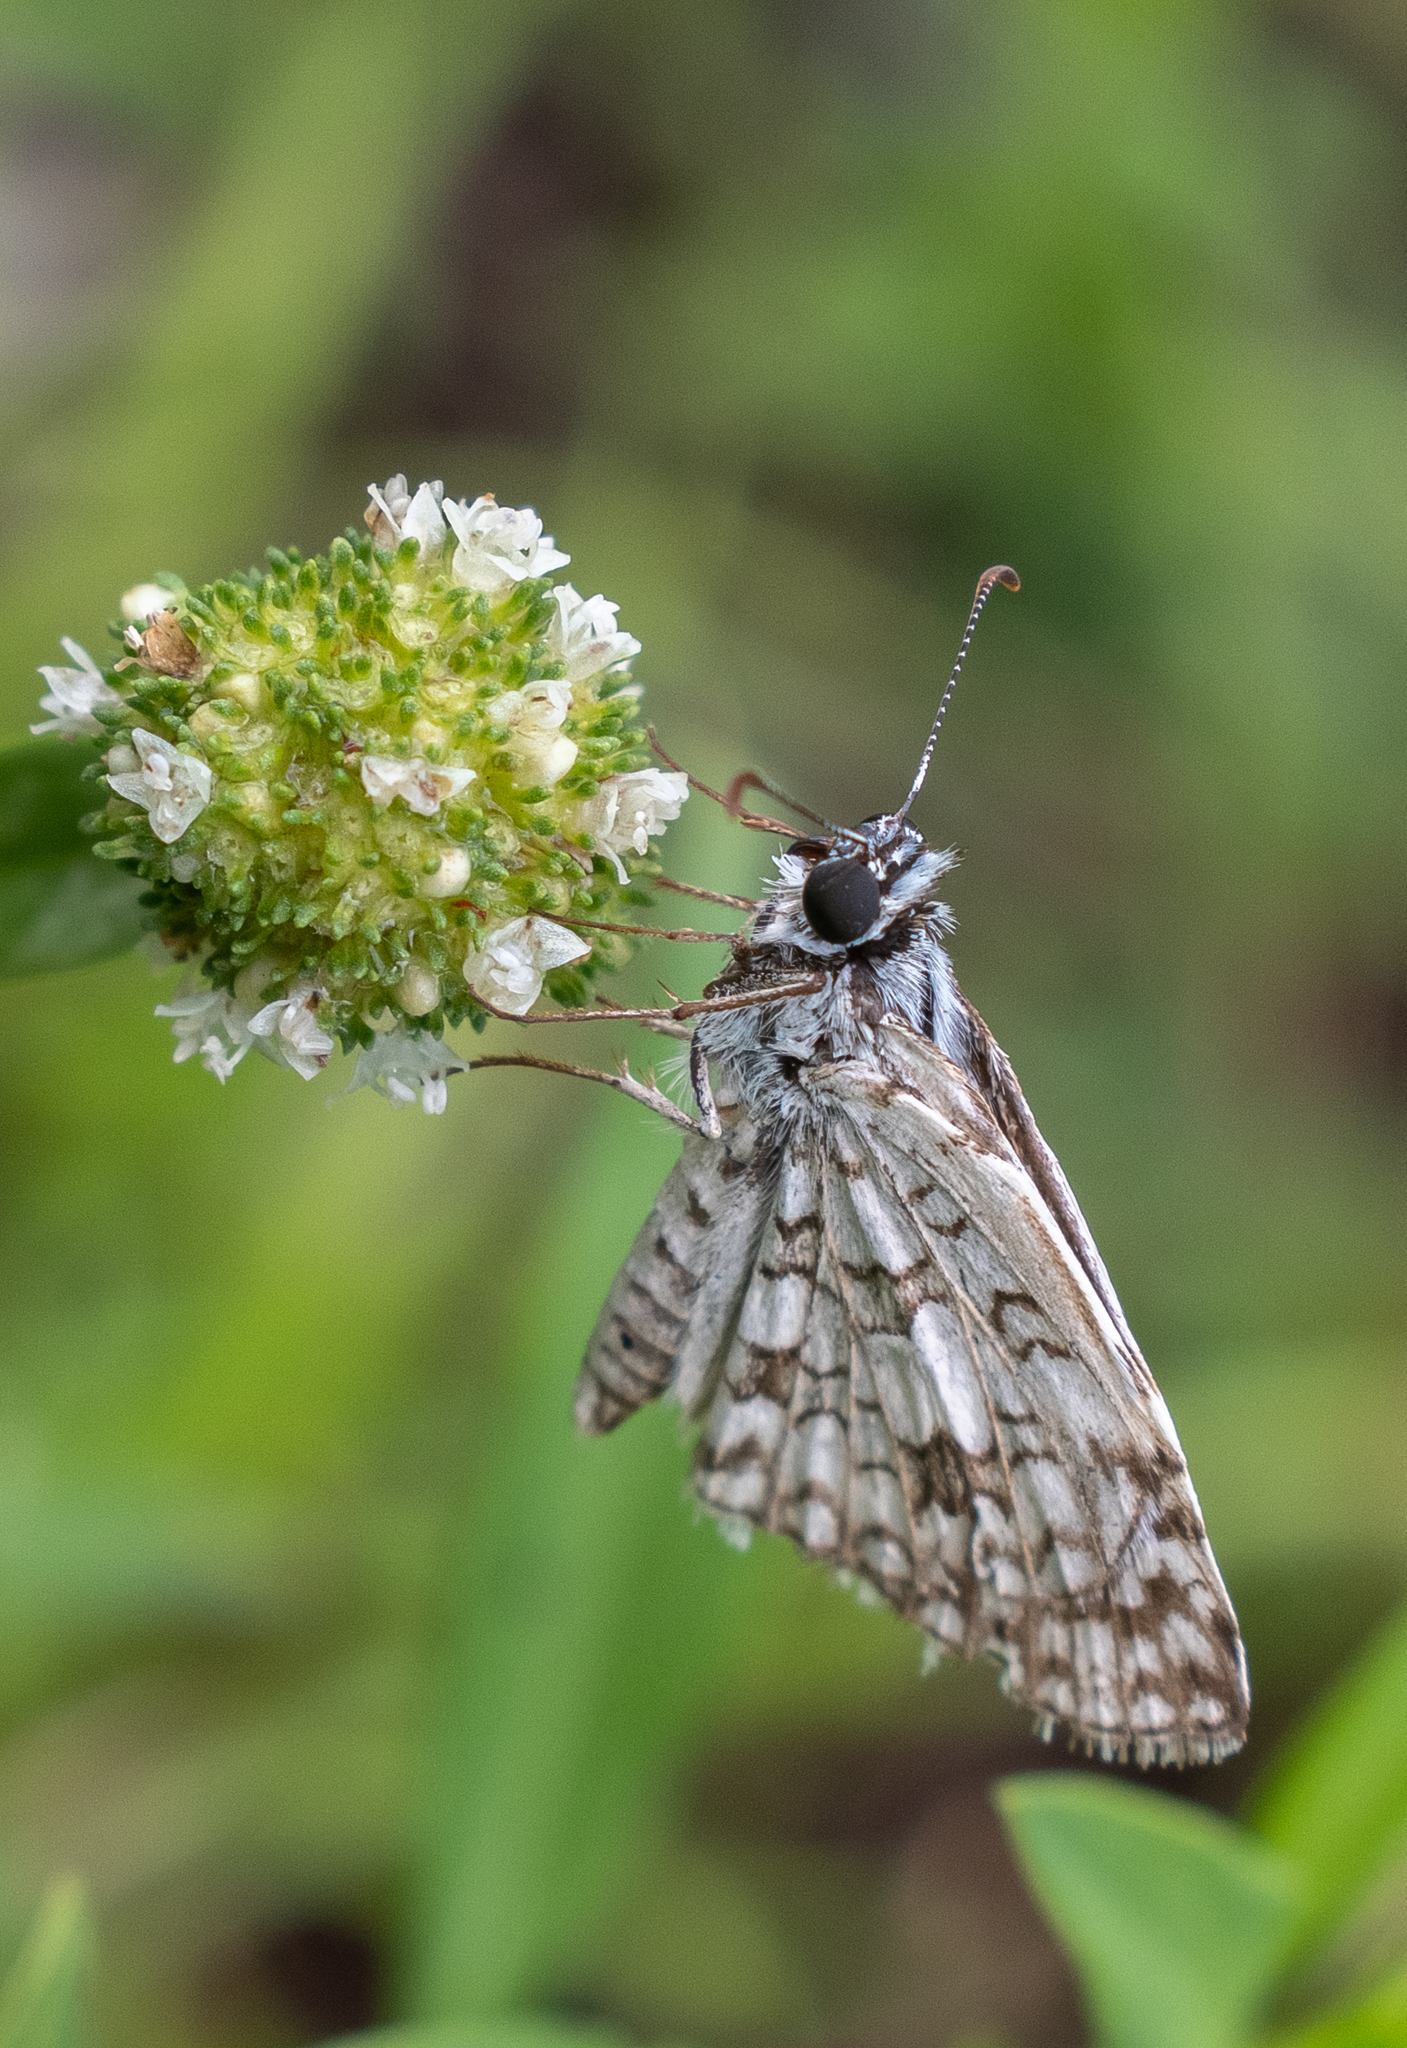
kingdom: Animalia
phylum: Arthropoda
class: Insecta
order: Lepidoptera
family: Hesperiidae
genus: Pyrgus
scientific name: Pyrgus oileus
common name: Tropical checkered-skipper
